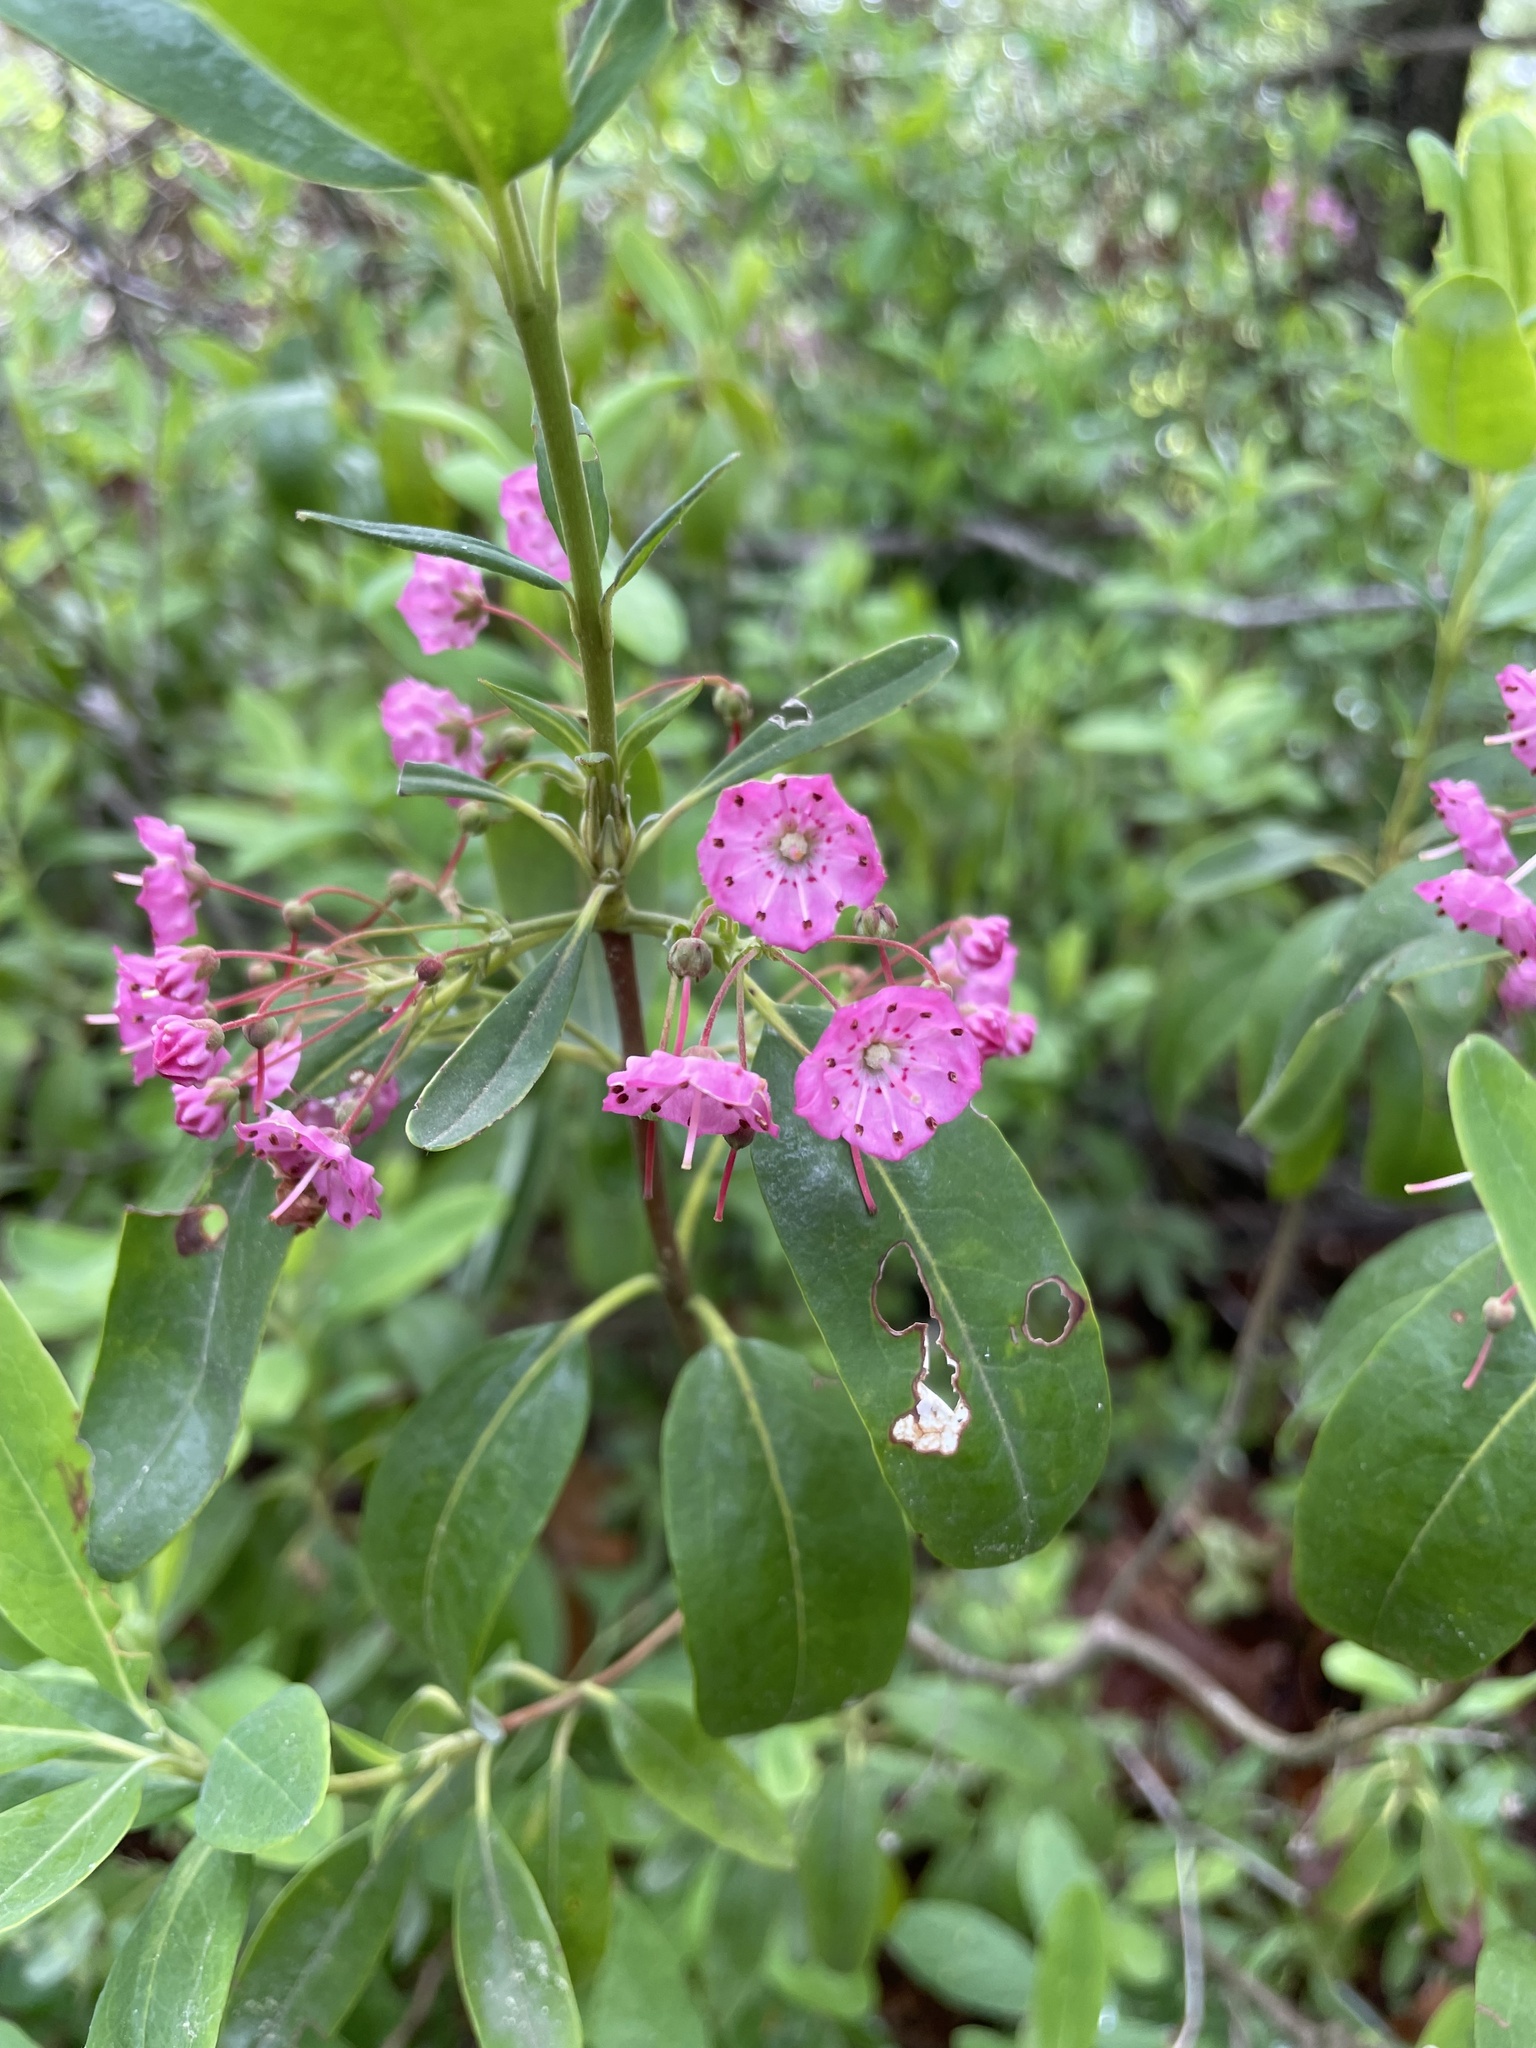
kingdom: Plantae
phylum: Tracheophyta
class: Magnoliopsida
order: Ericales
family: Ericaceae
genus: Kalmia
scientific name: Kalmia angustifolia
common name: Sheep-laurel
